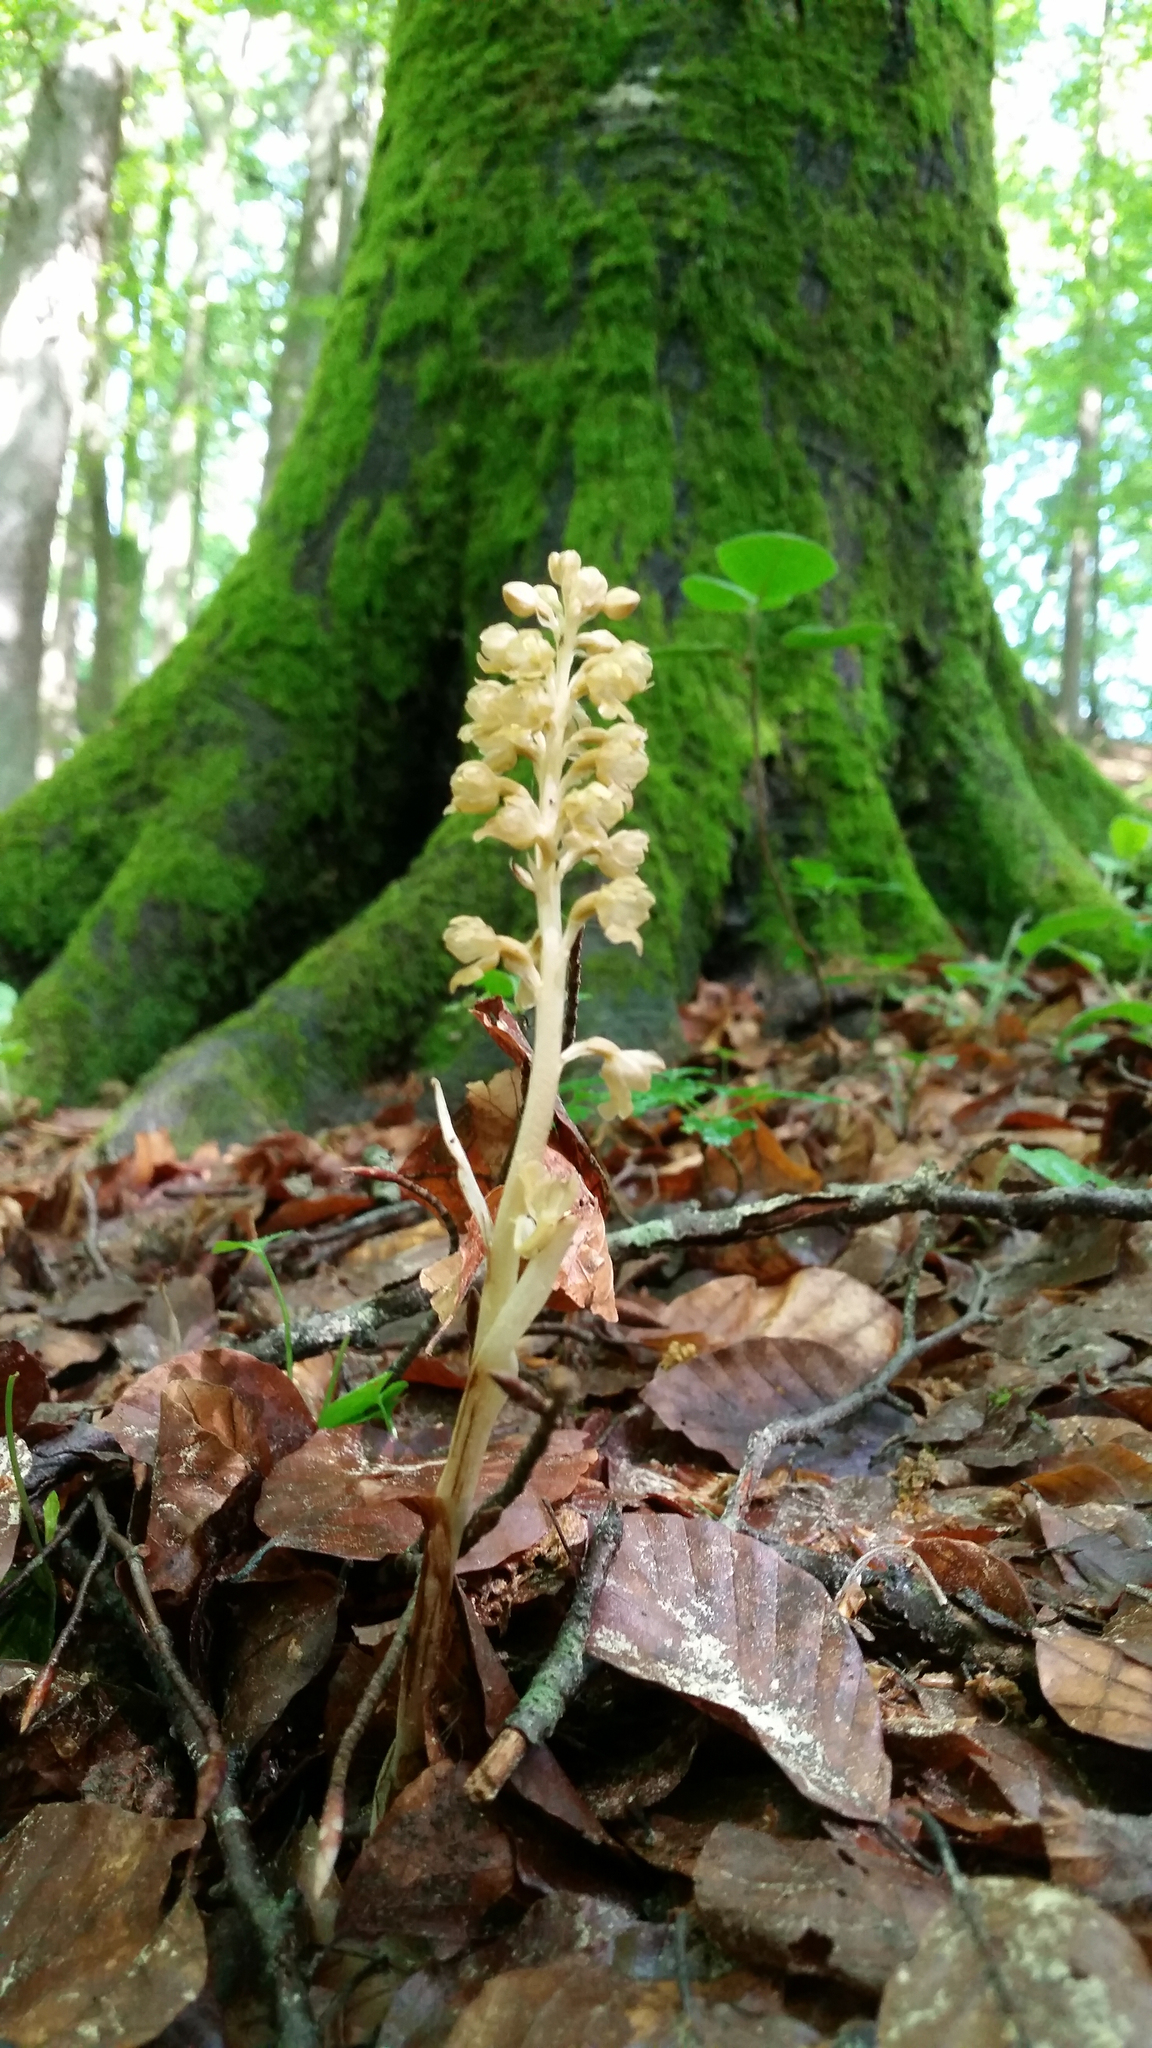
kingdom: Plantae
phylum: Tracheophyta
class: Liliopsida
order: Asparagales
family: Orchidaceae
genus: Neottia
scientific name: Neottia nidus-avis
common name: Bird's-nest orchid
